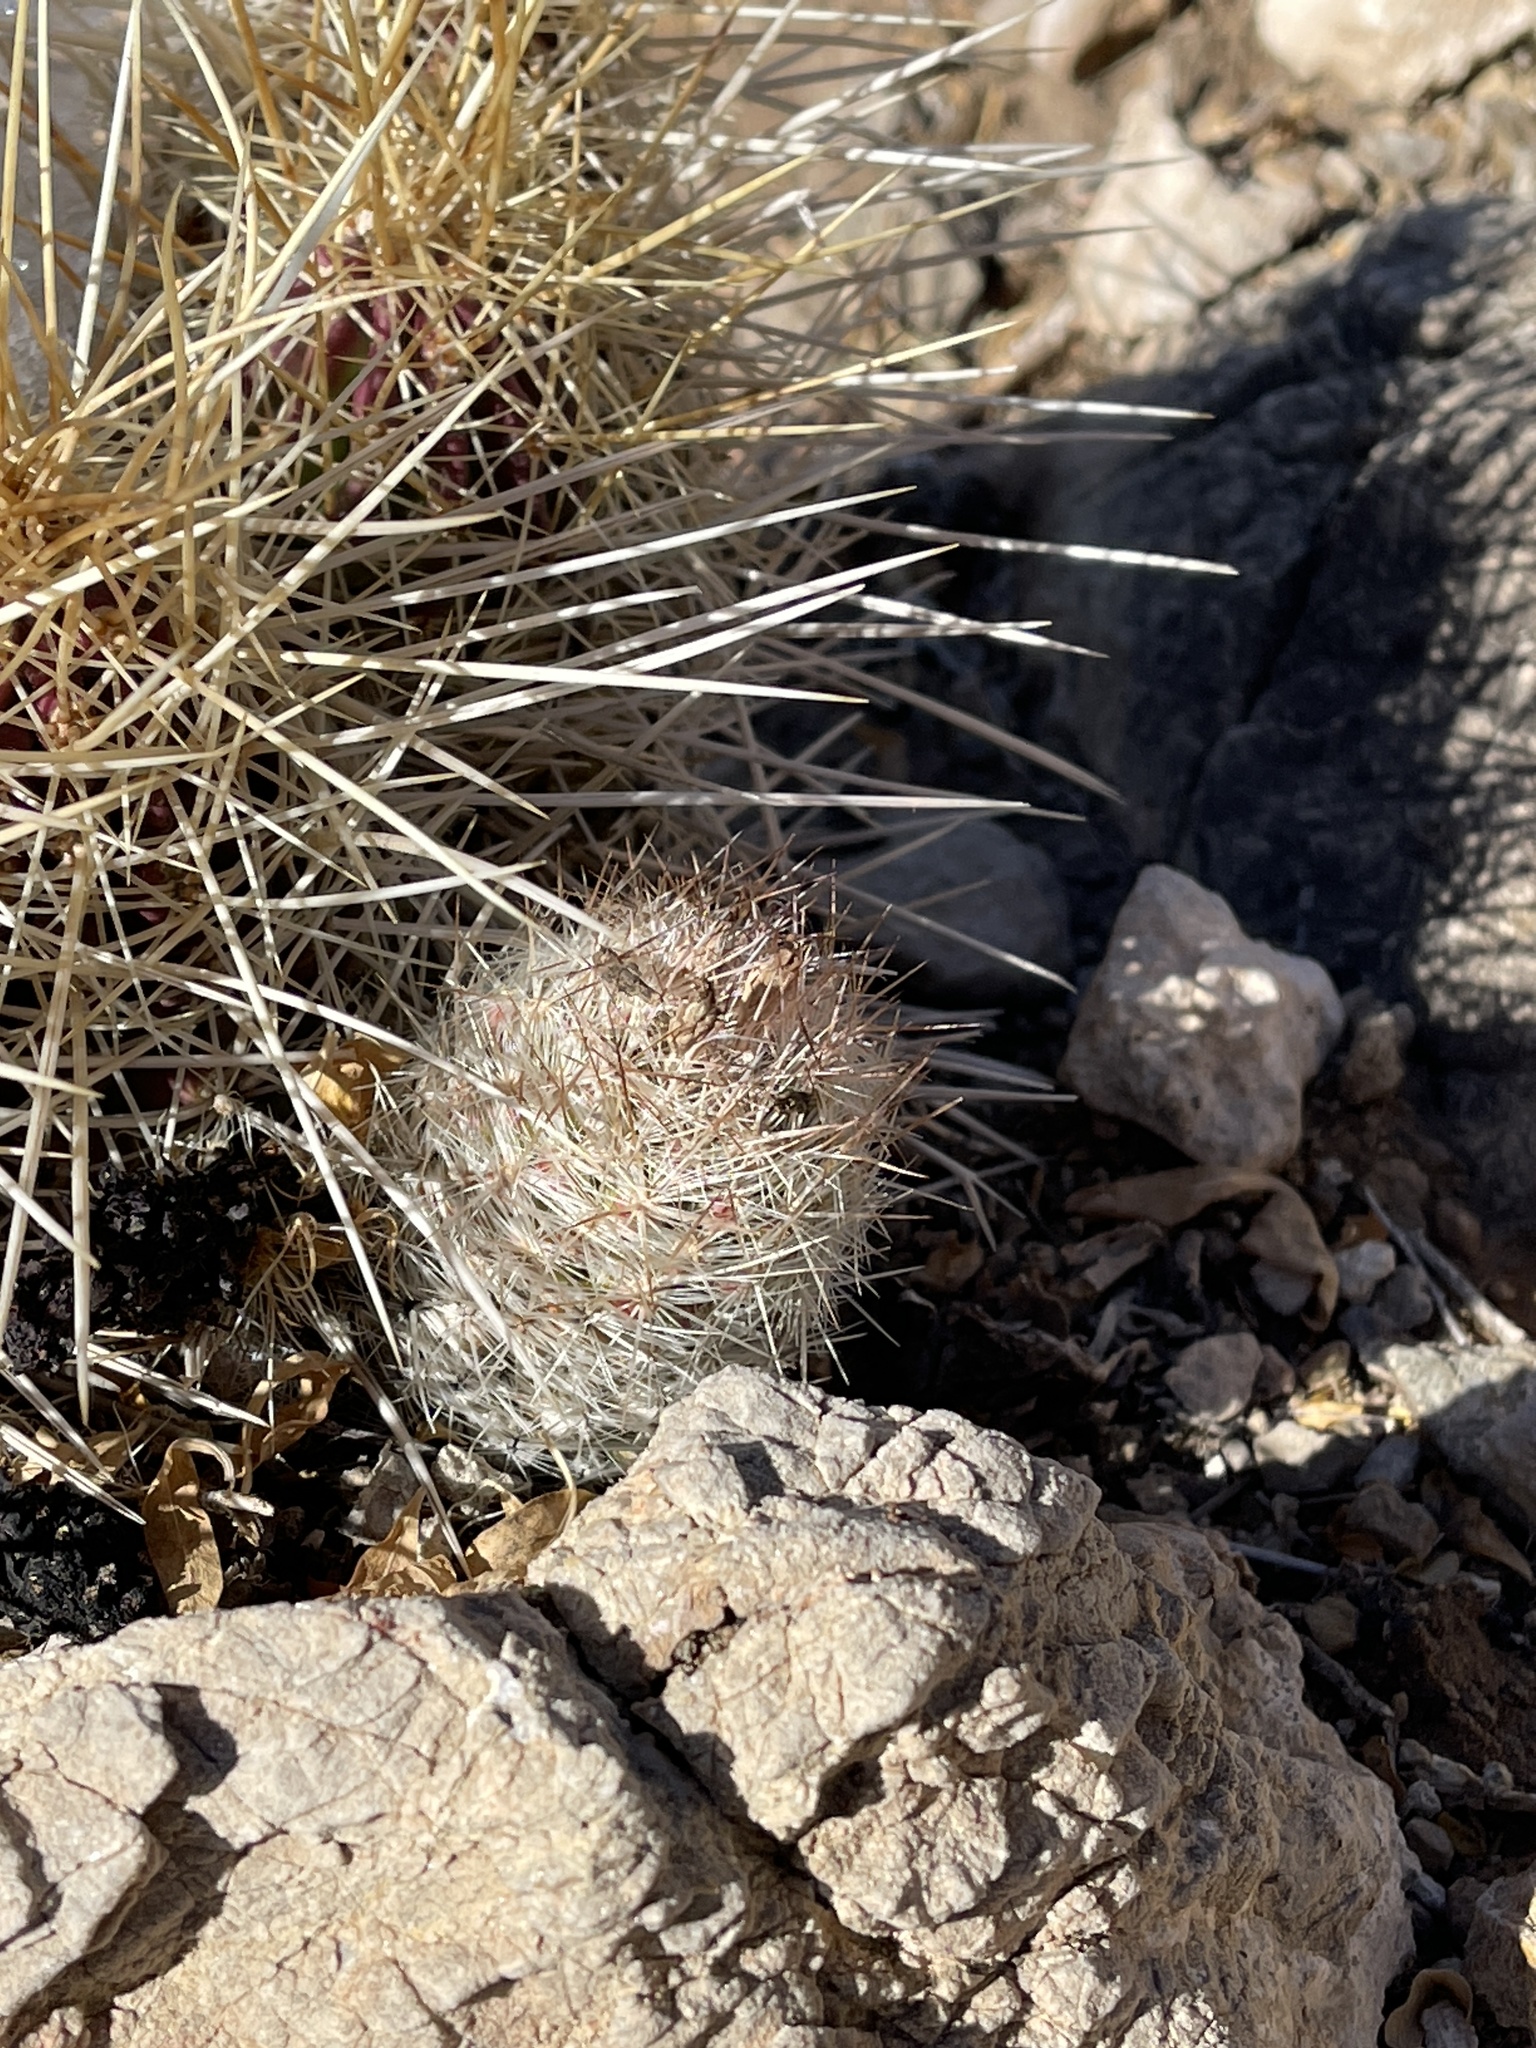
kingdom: Plantae
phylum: Tracheophyta
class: Magnoliopsida
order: Caryophyllales
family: Cactaceae
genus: Pelecyphora
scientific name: Pelecyphora tuberculosa
